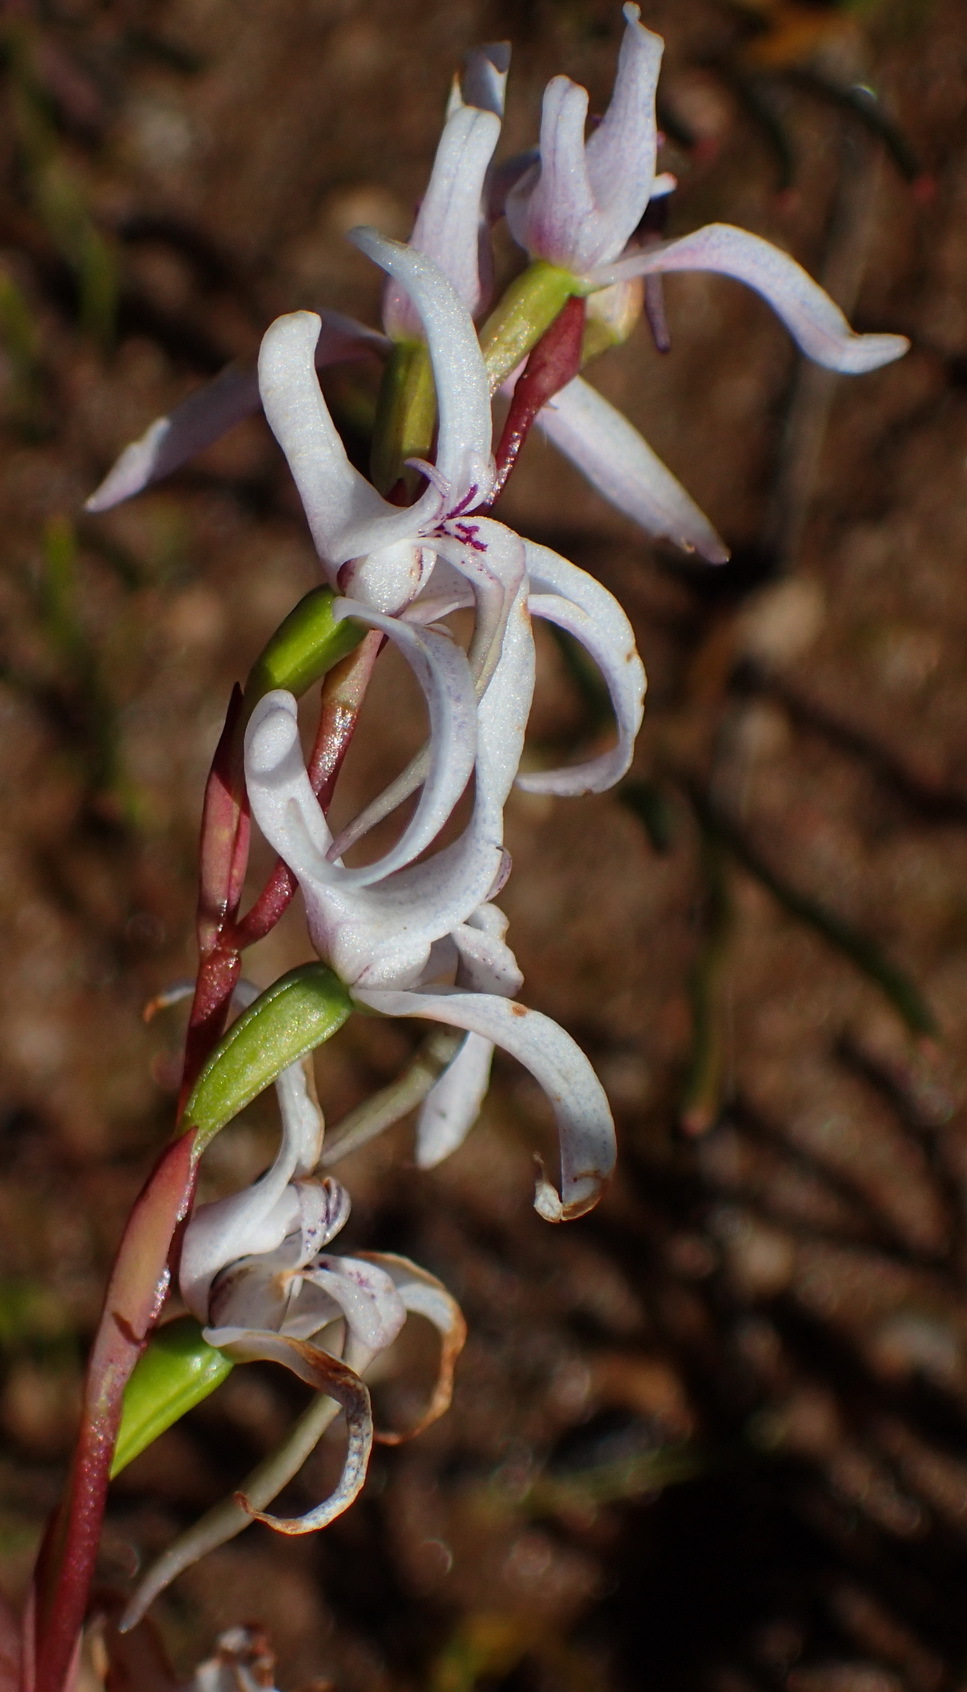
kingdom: Plantae
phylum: Tracheophyta
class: Liliopsida
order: Asparagales
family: Orchidaceae
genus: Disa
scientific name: Disa biflora
